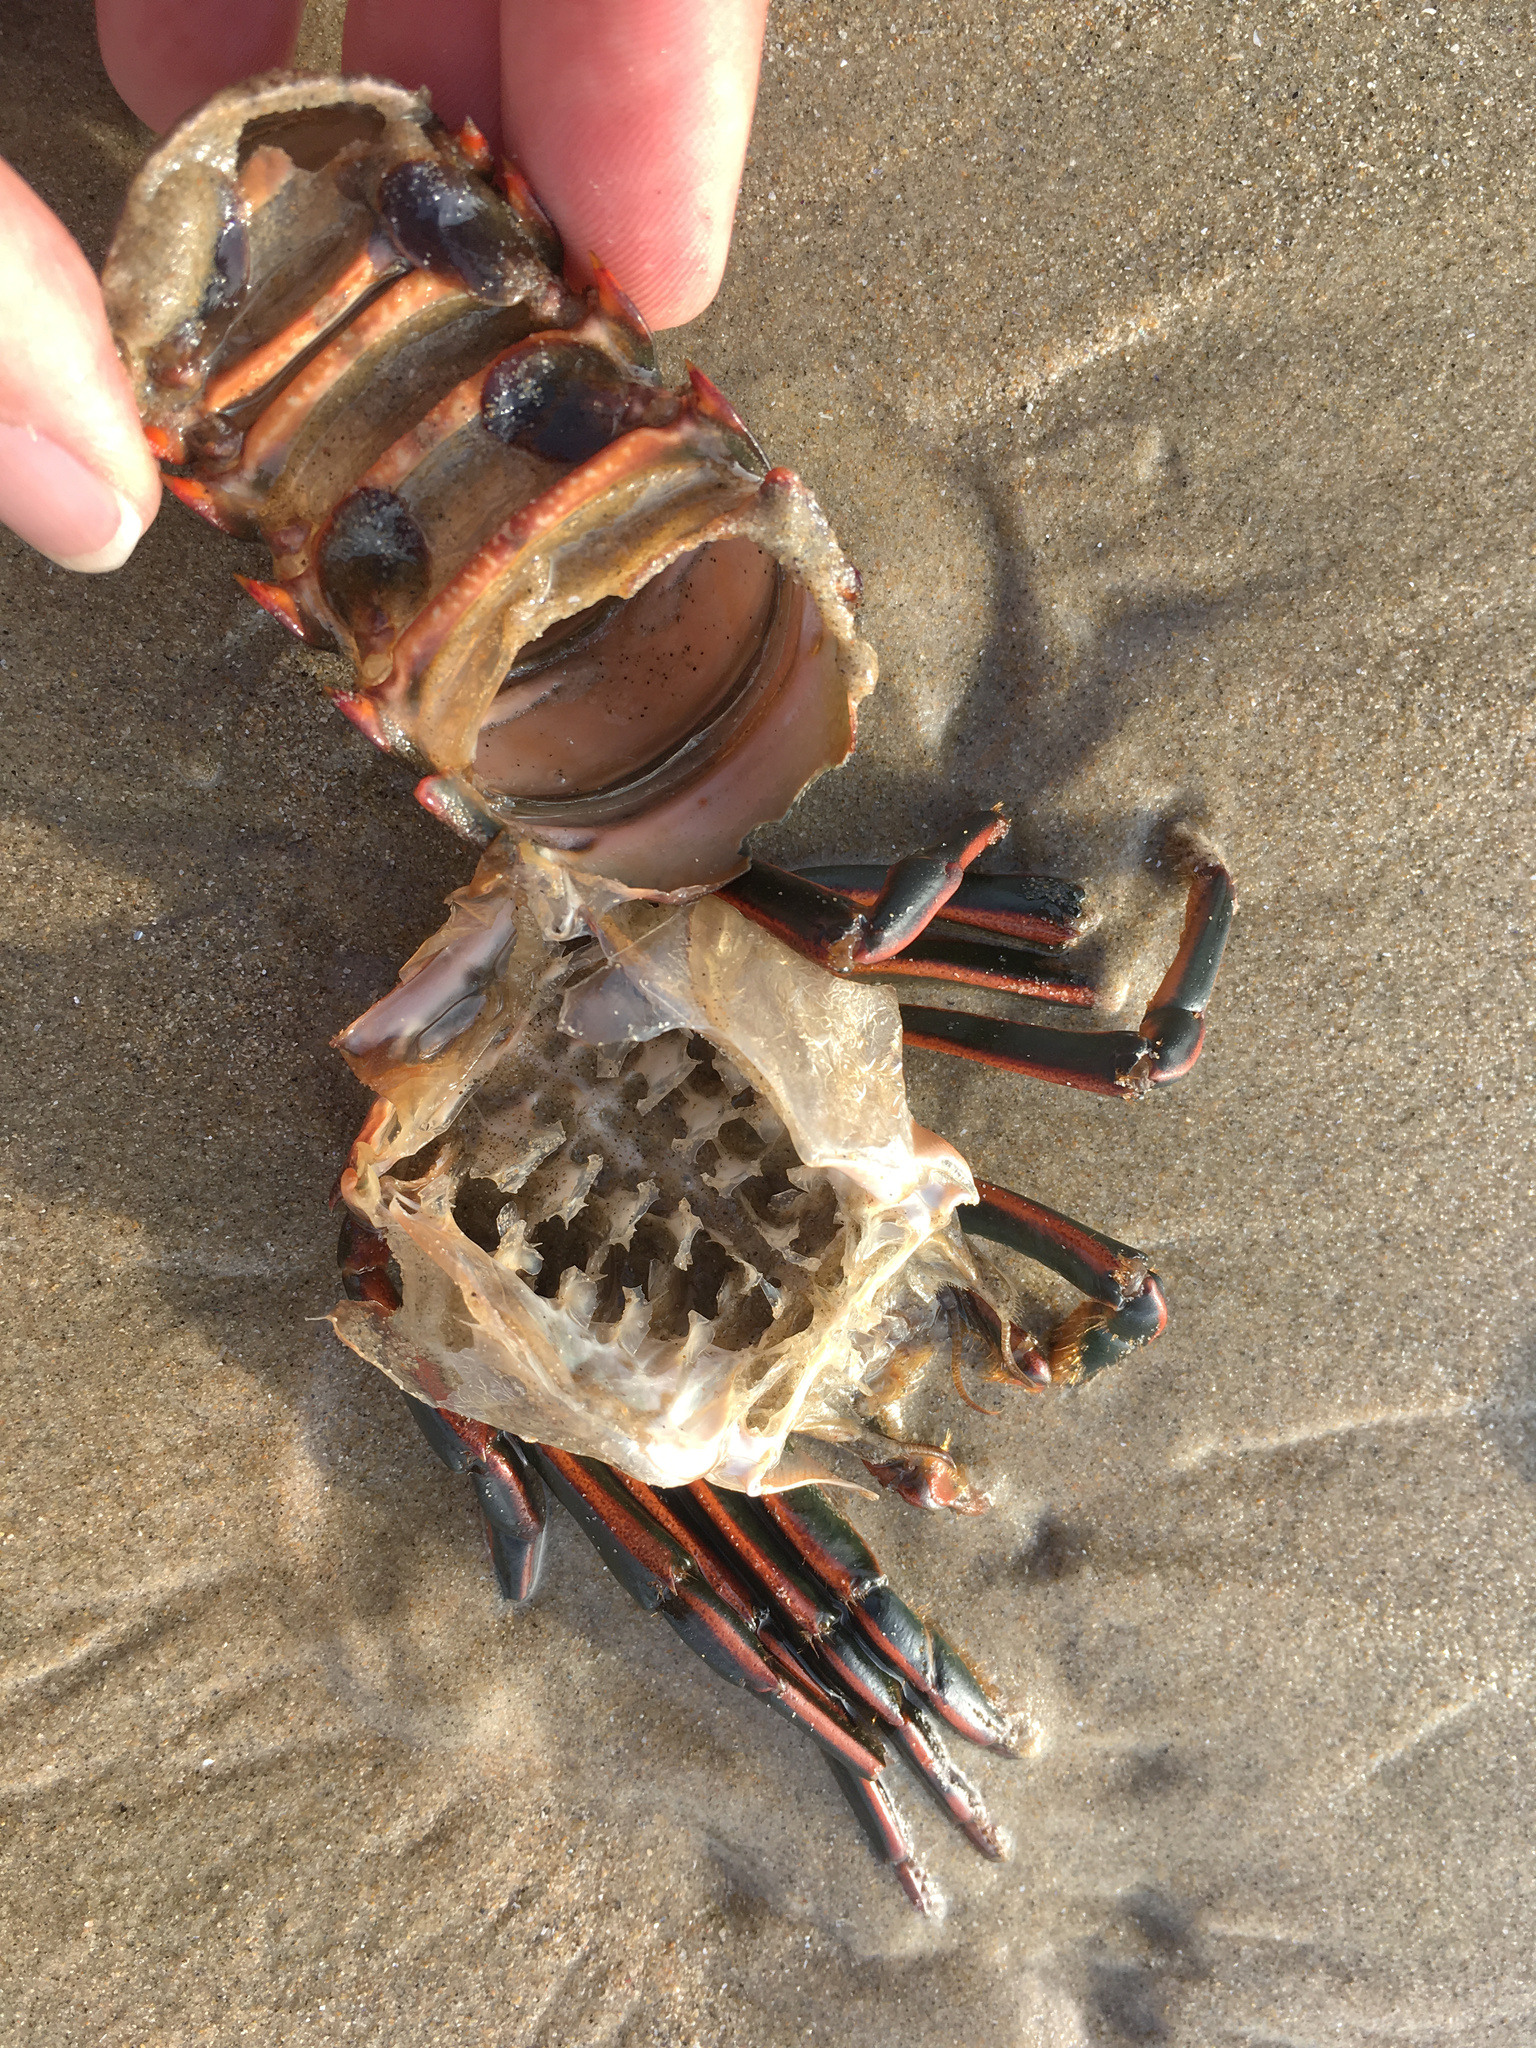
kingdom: Animalia
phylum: Arthropoda
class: Malacostraca
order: Decapoda
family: Palinuridae
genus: Panulirus
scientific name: Panulirus interruptus
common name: California spiny lobster
